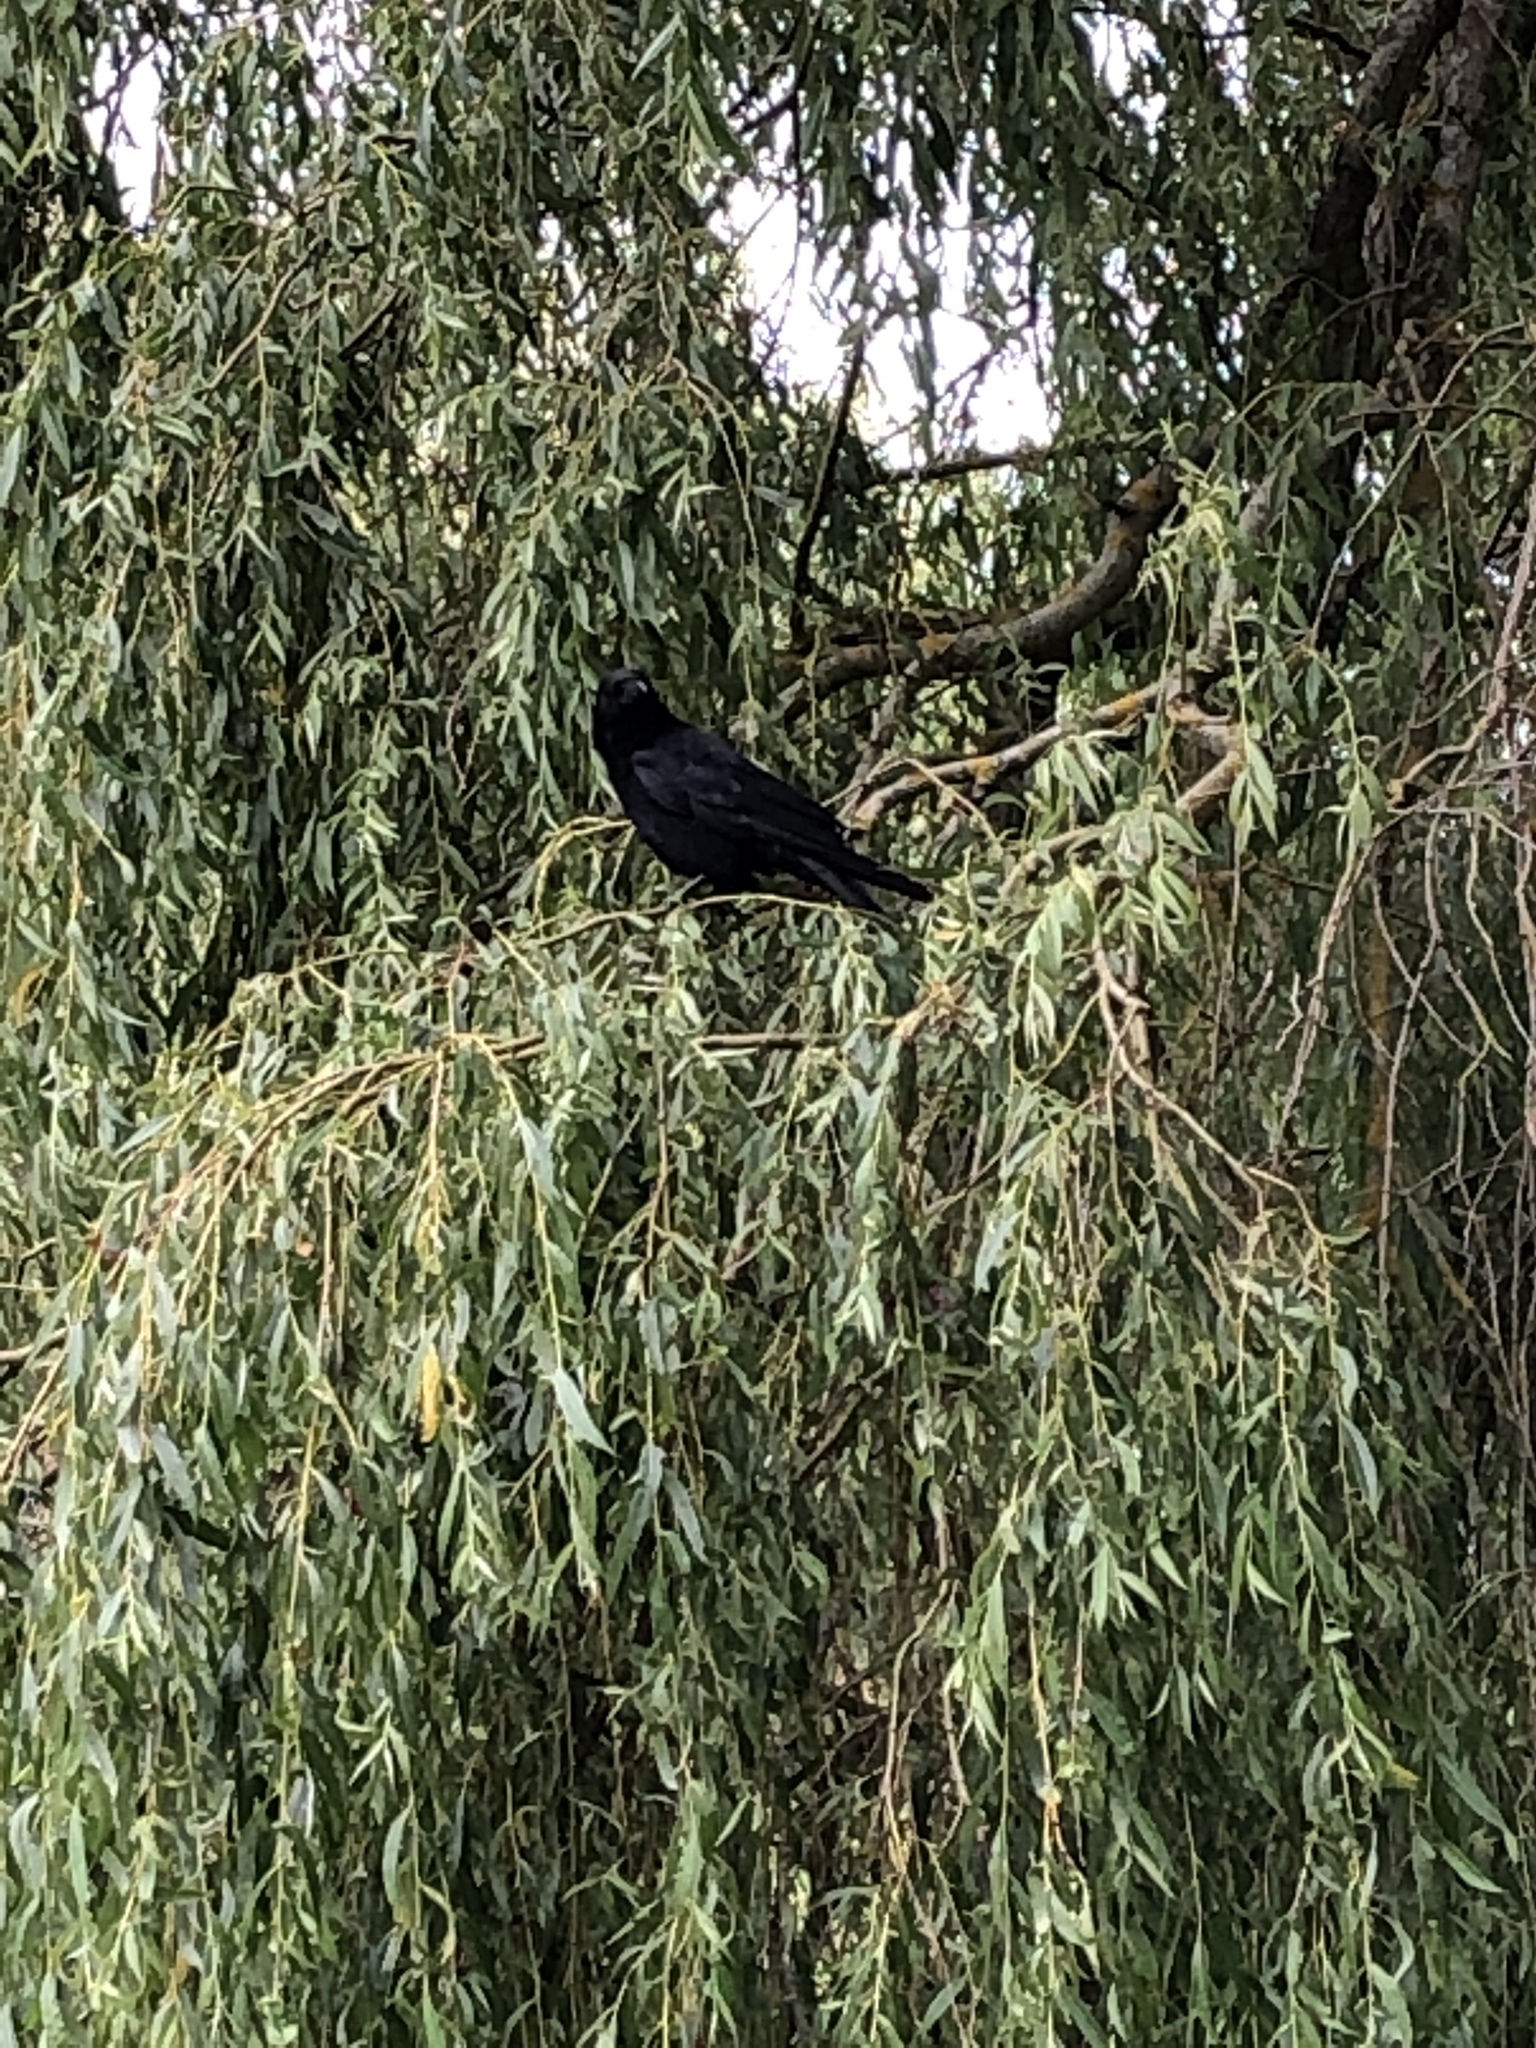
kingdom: Animalia
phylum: Chordata
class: Aves
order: Passeriformes
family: Corvidae
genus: Corvus
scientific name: Corvus corone
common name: Carrion crow
